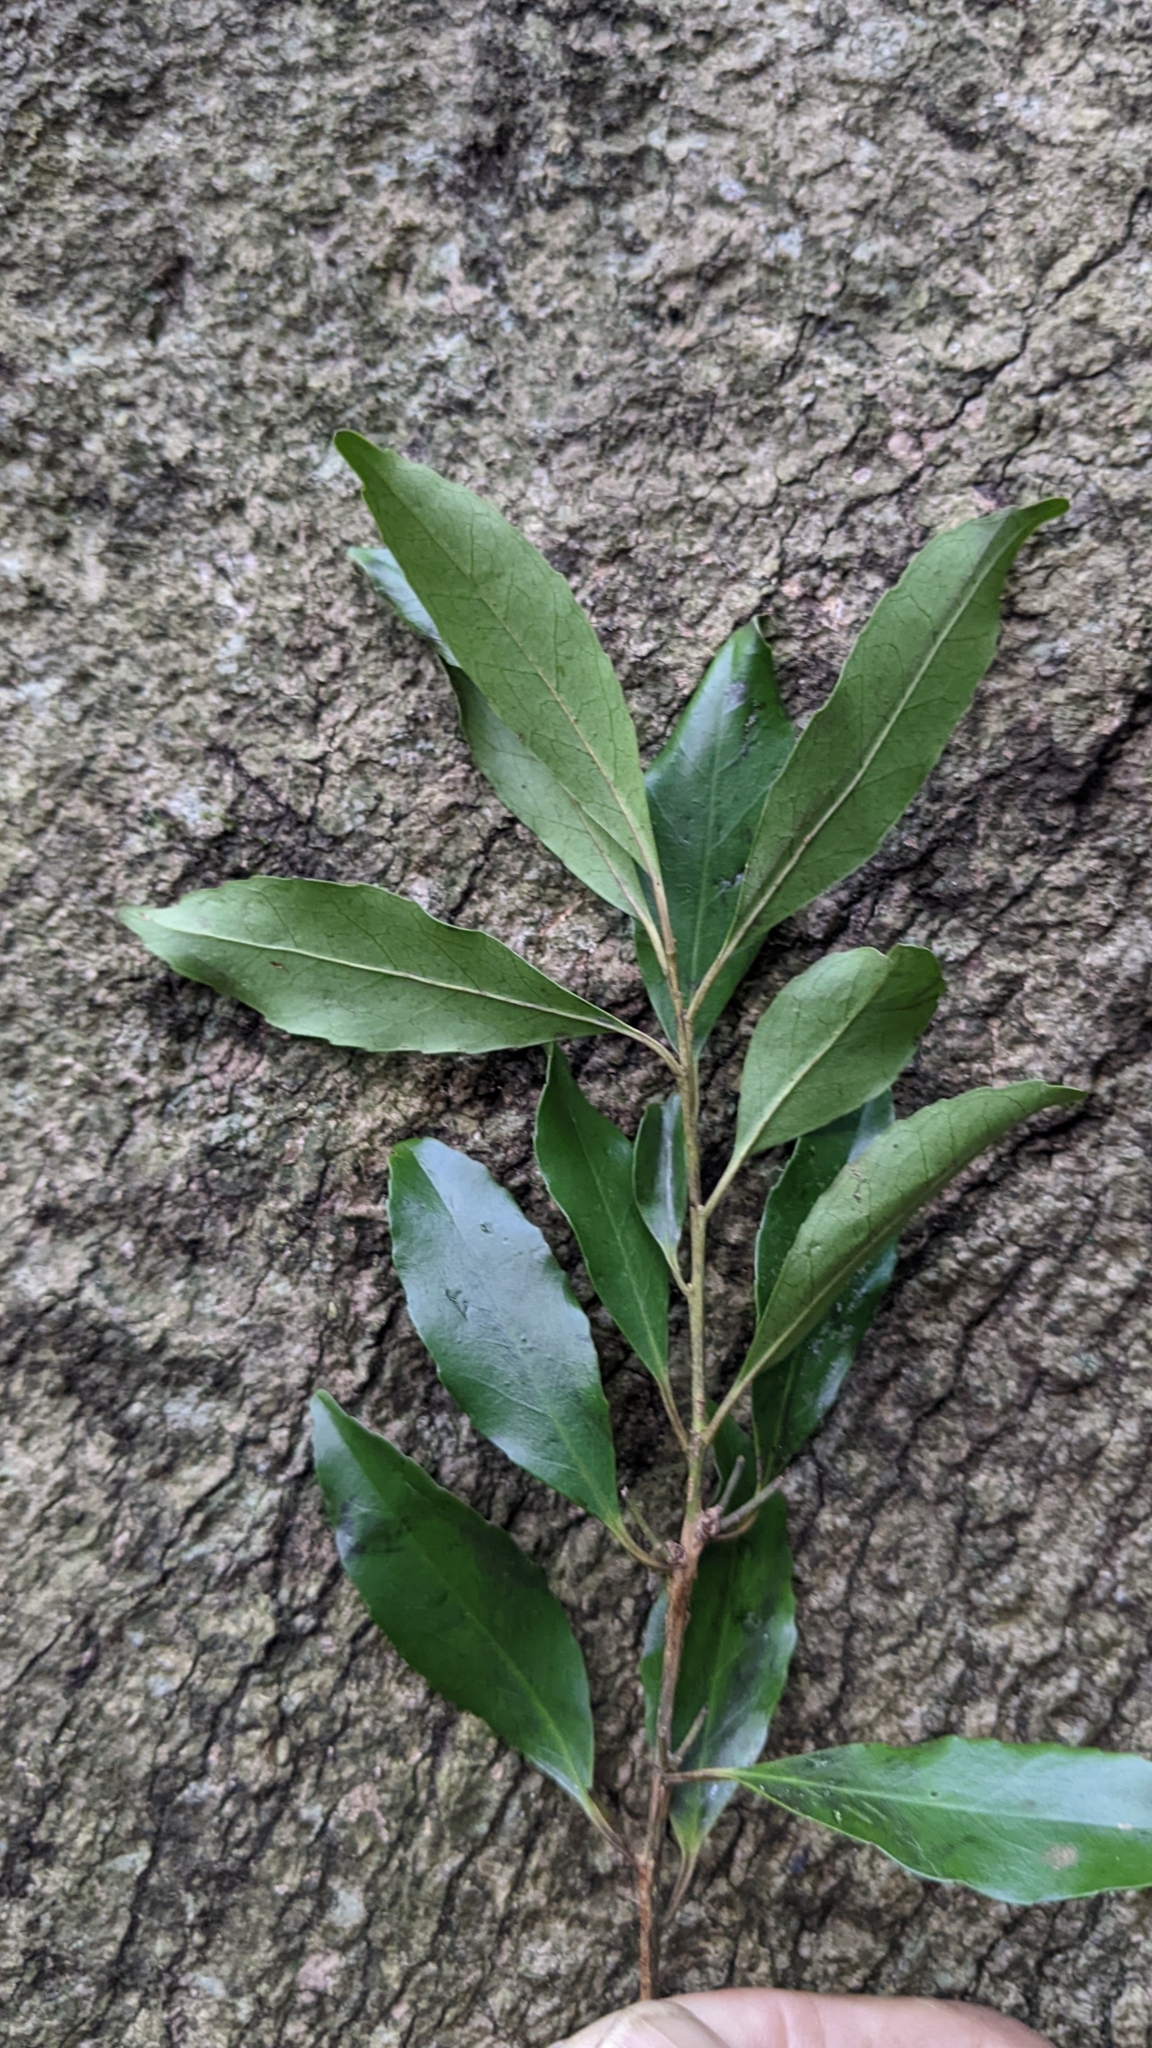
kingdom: Plantae
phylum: Tracheophyta
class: Magnoliopsida
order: Aquifoliales
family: Aquifoliaceae
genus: Ilex
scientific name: Ilex uraiensis
